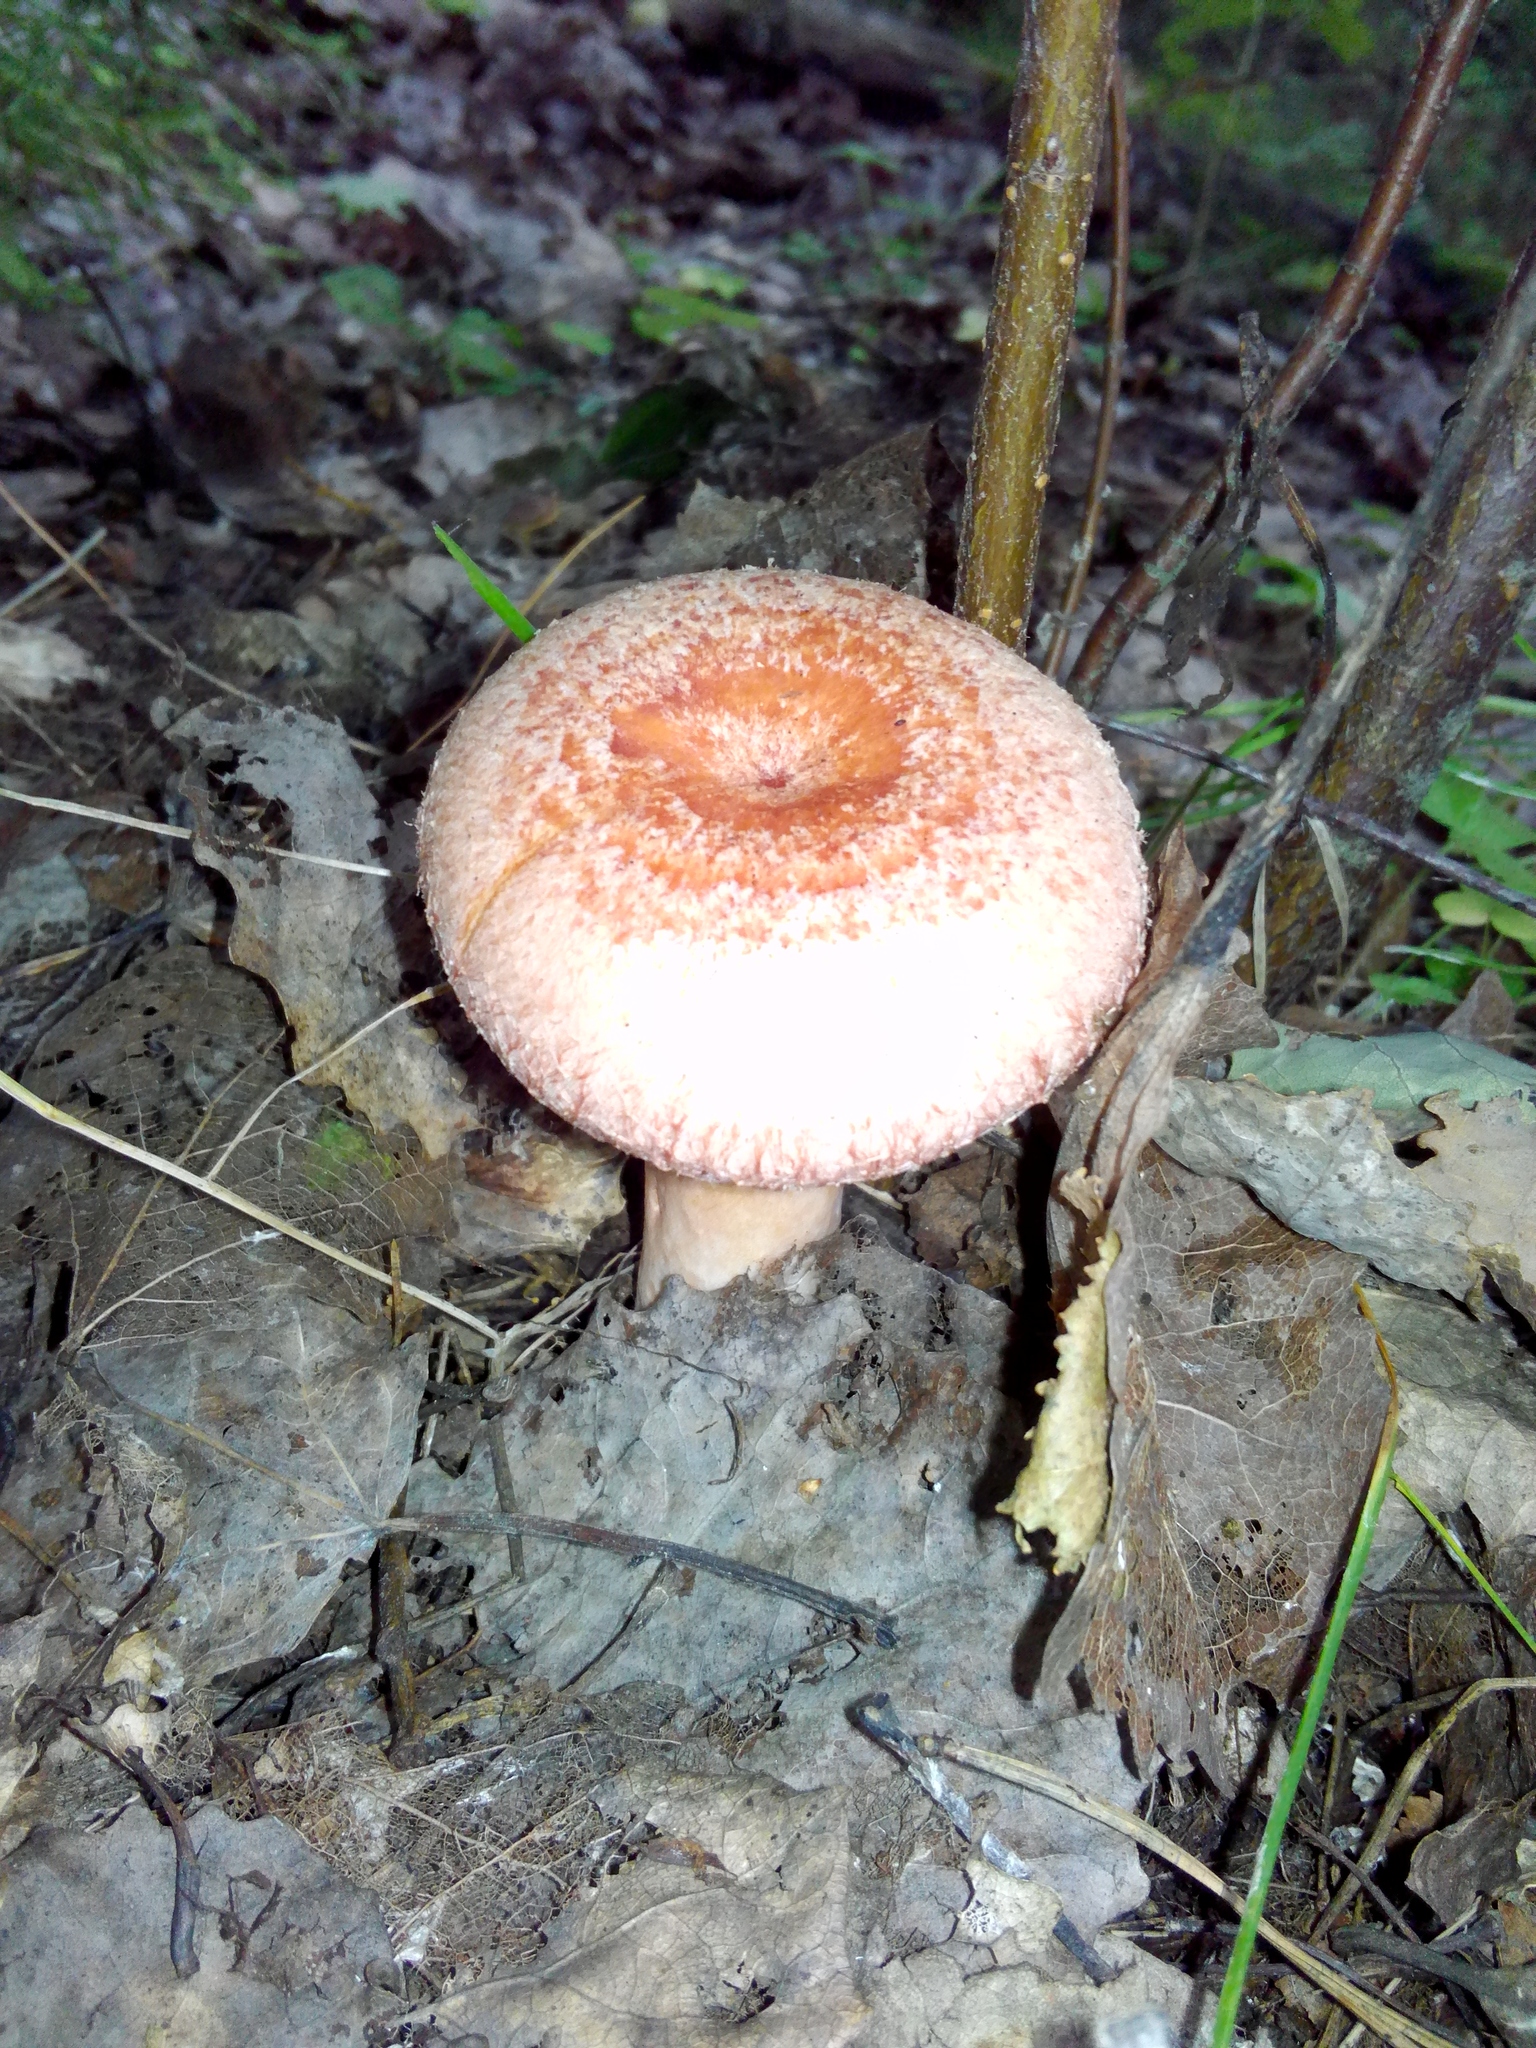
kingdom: Fungi
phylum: Basidiomycota
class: Agaricomycetes
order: Russulales
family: Russulaceae
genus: Lactarius
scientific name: Lactarius torminosus
